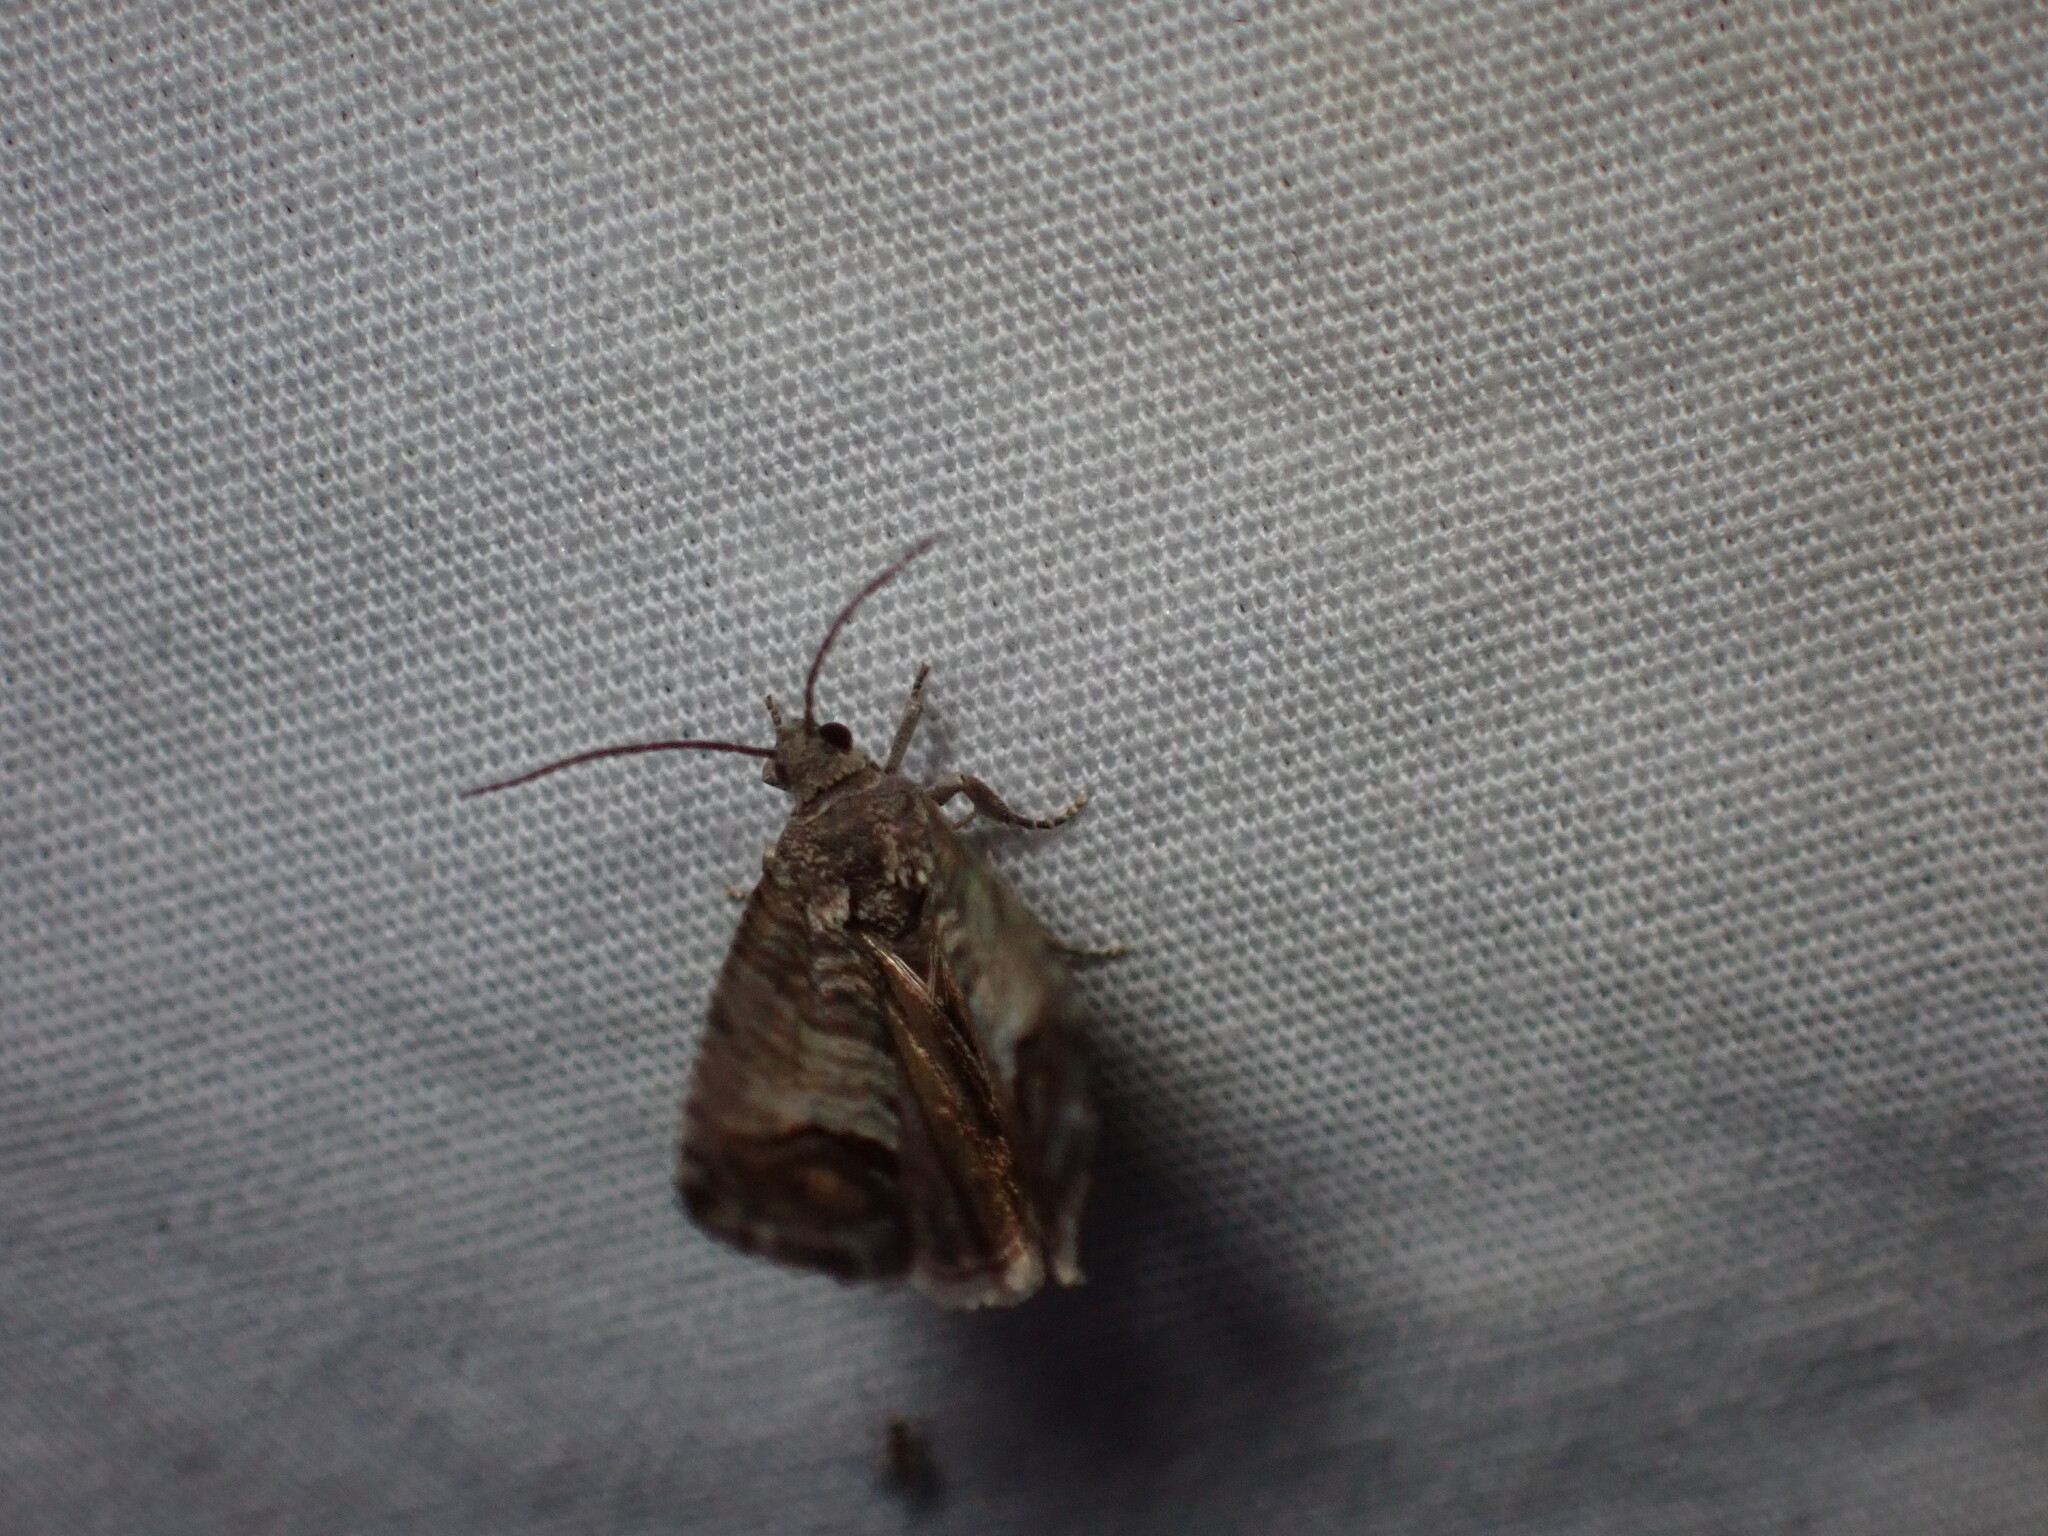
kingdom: Animalia
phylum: Arthropoda
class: Insecta
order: Lepidoptera
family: Tortricidae
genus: Cydia
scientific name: Cydia pomonella
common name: Codling moth
